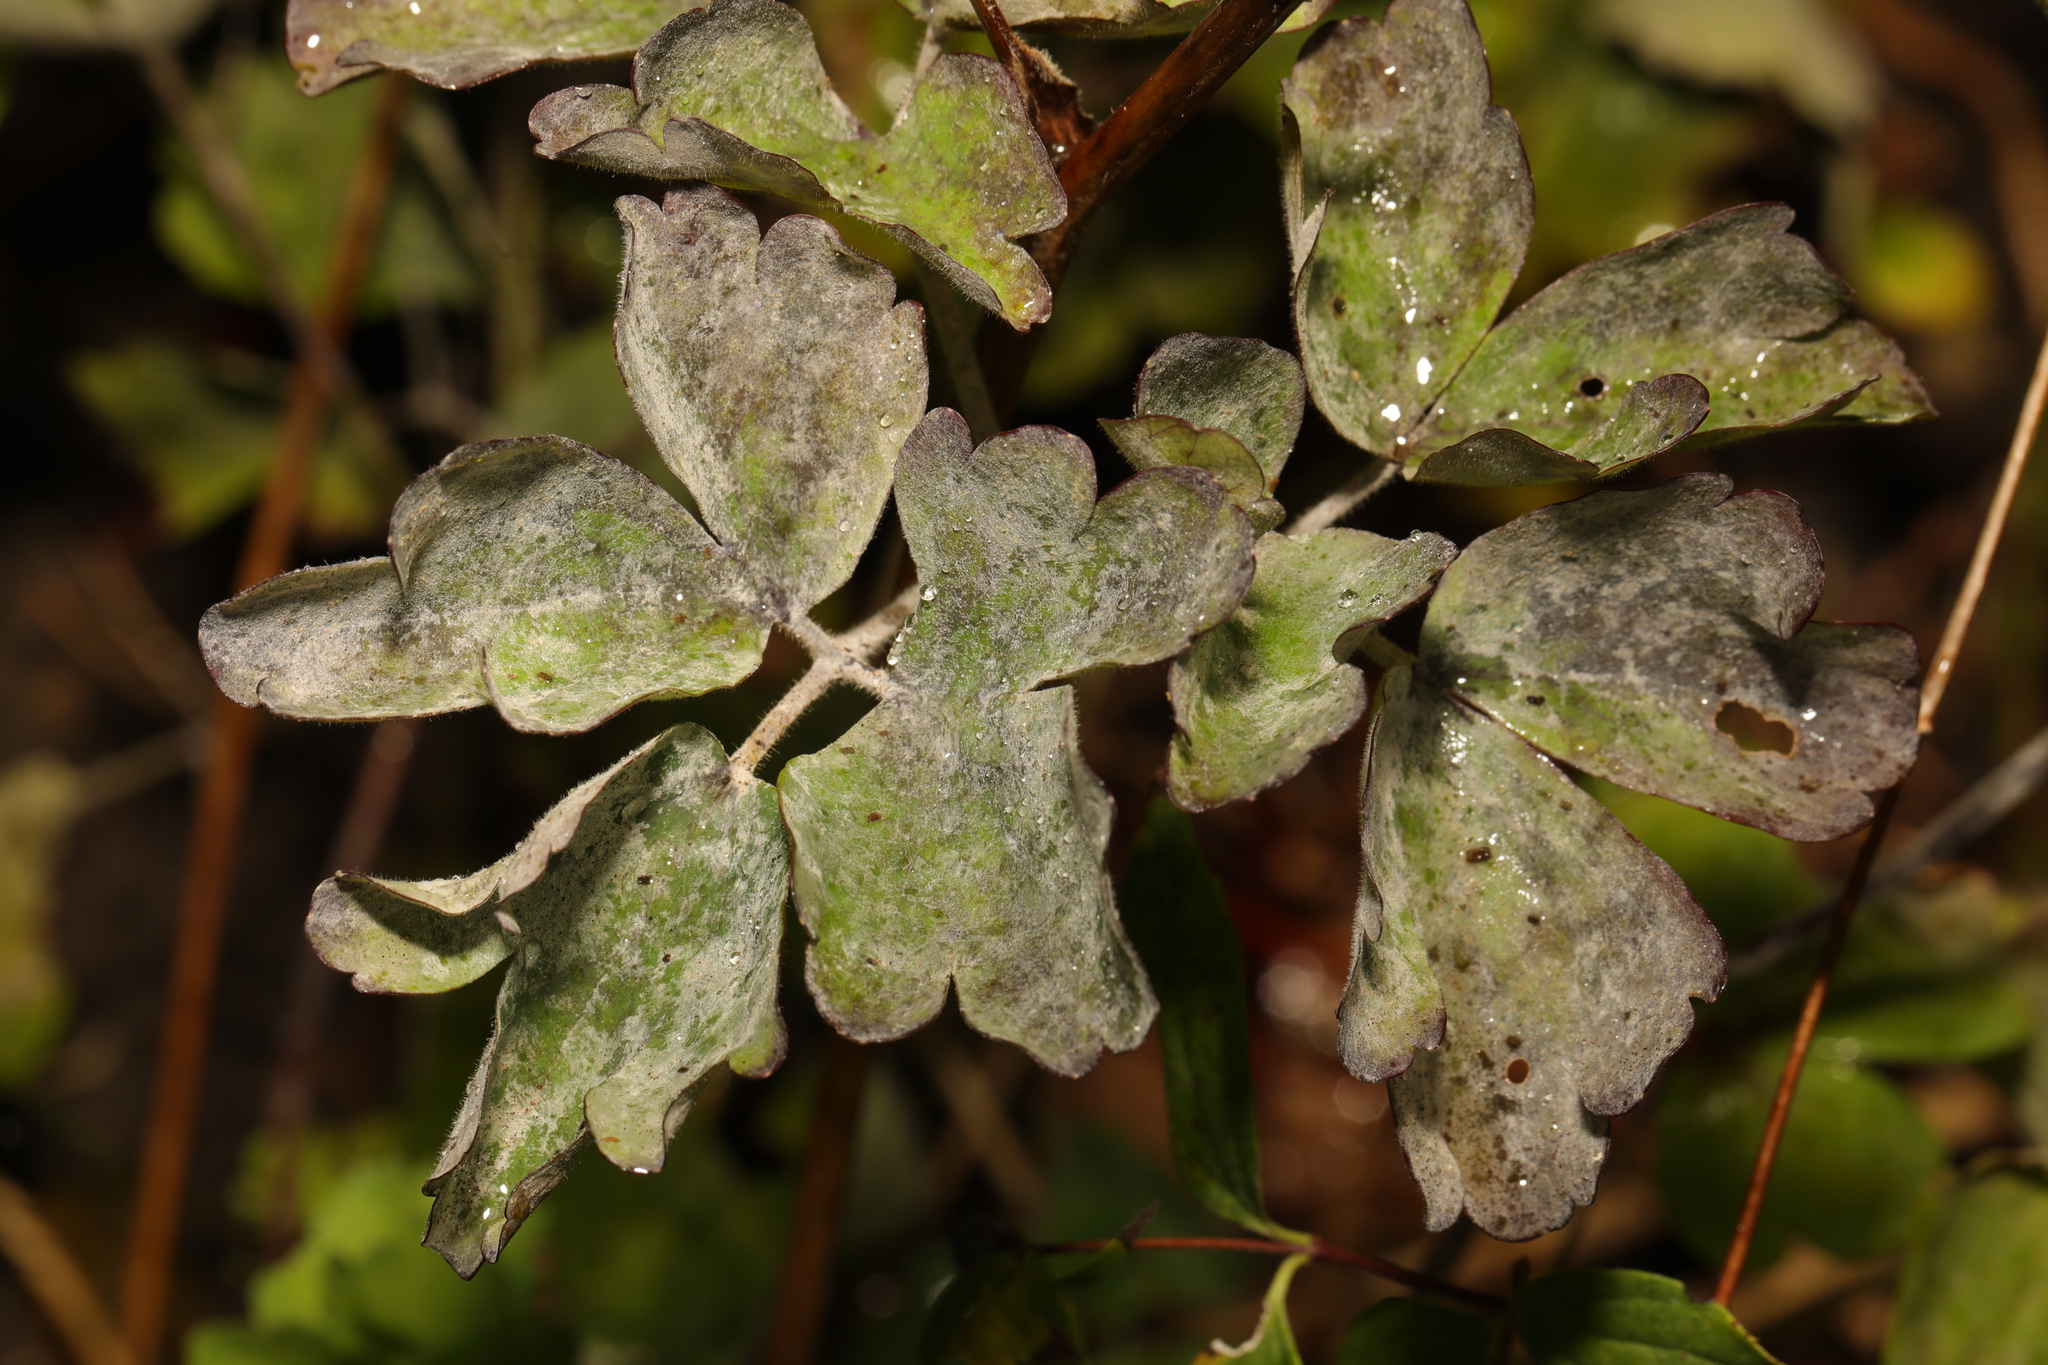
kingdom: Fungi
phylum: Ascomycota
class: Leotiomycetes
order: Helotiales
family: Erysiphaceae
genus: Erysiphe
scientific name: Erysiphe aquilegiae
